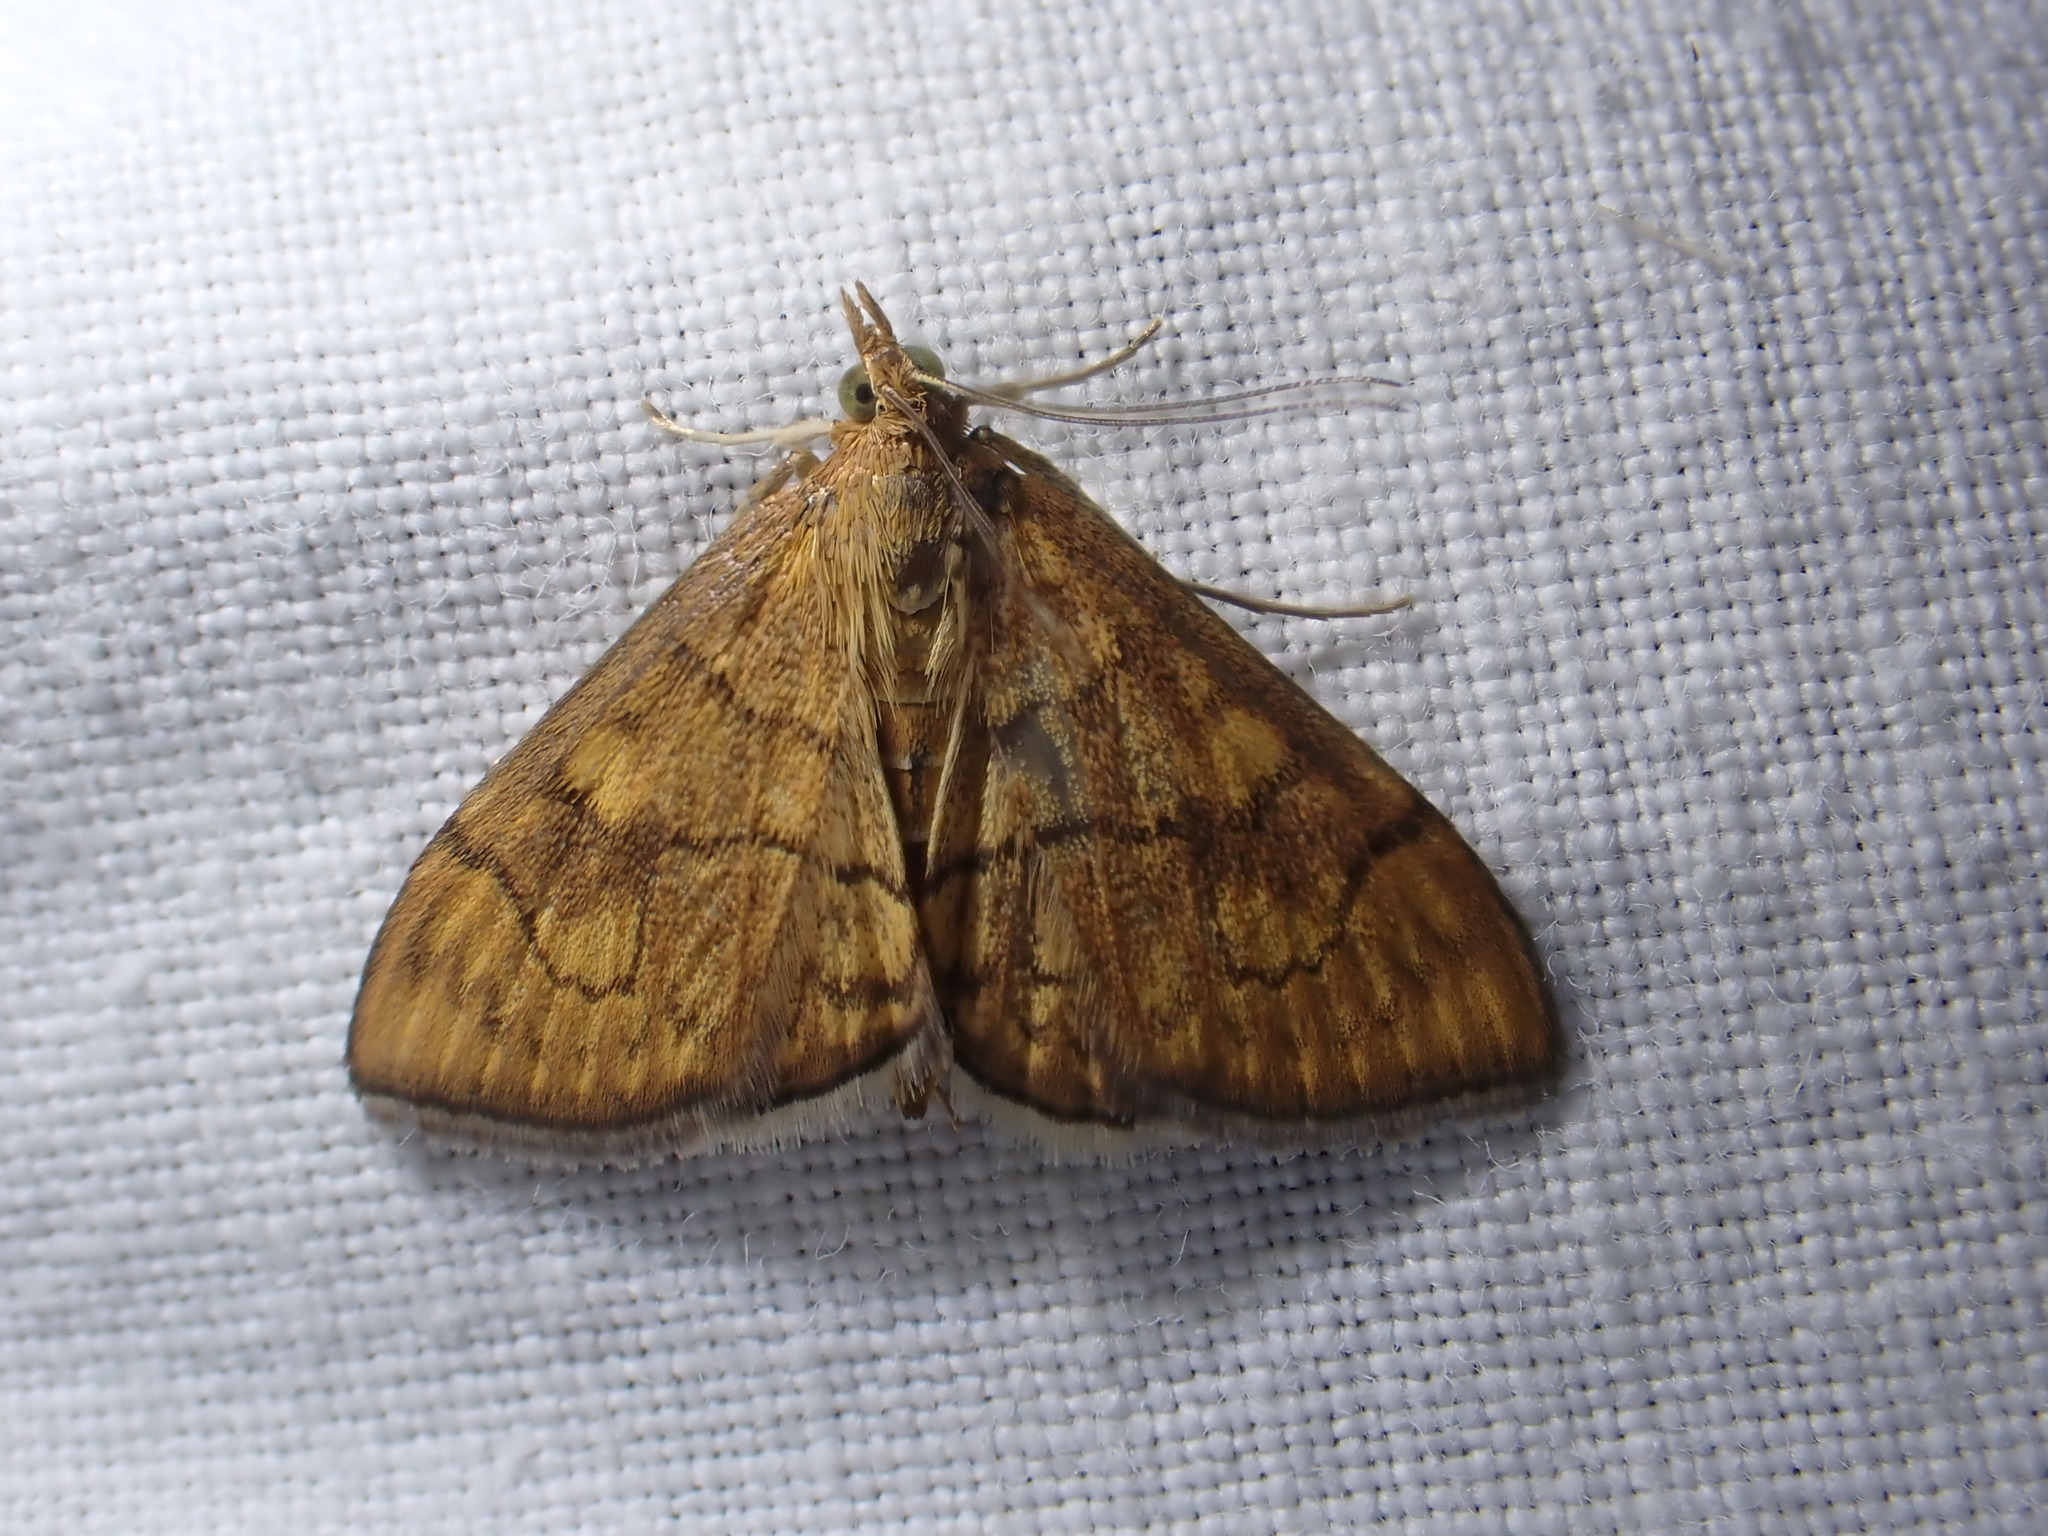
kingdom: Animalia
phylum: Arthropoda
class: Insecta
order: Lepidoptera
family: Crambidae
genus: Anania
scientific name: Anania verbascalis
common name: Golden pearl
